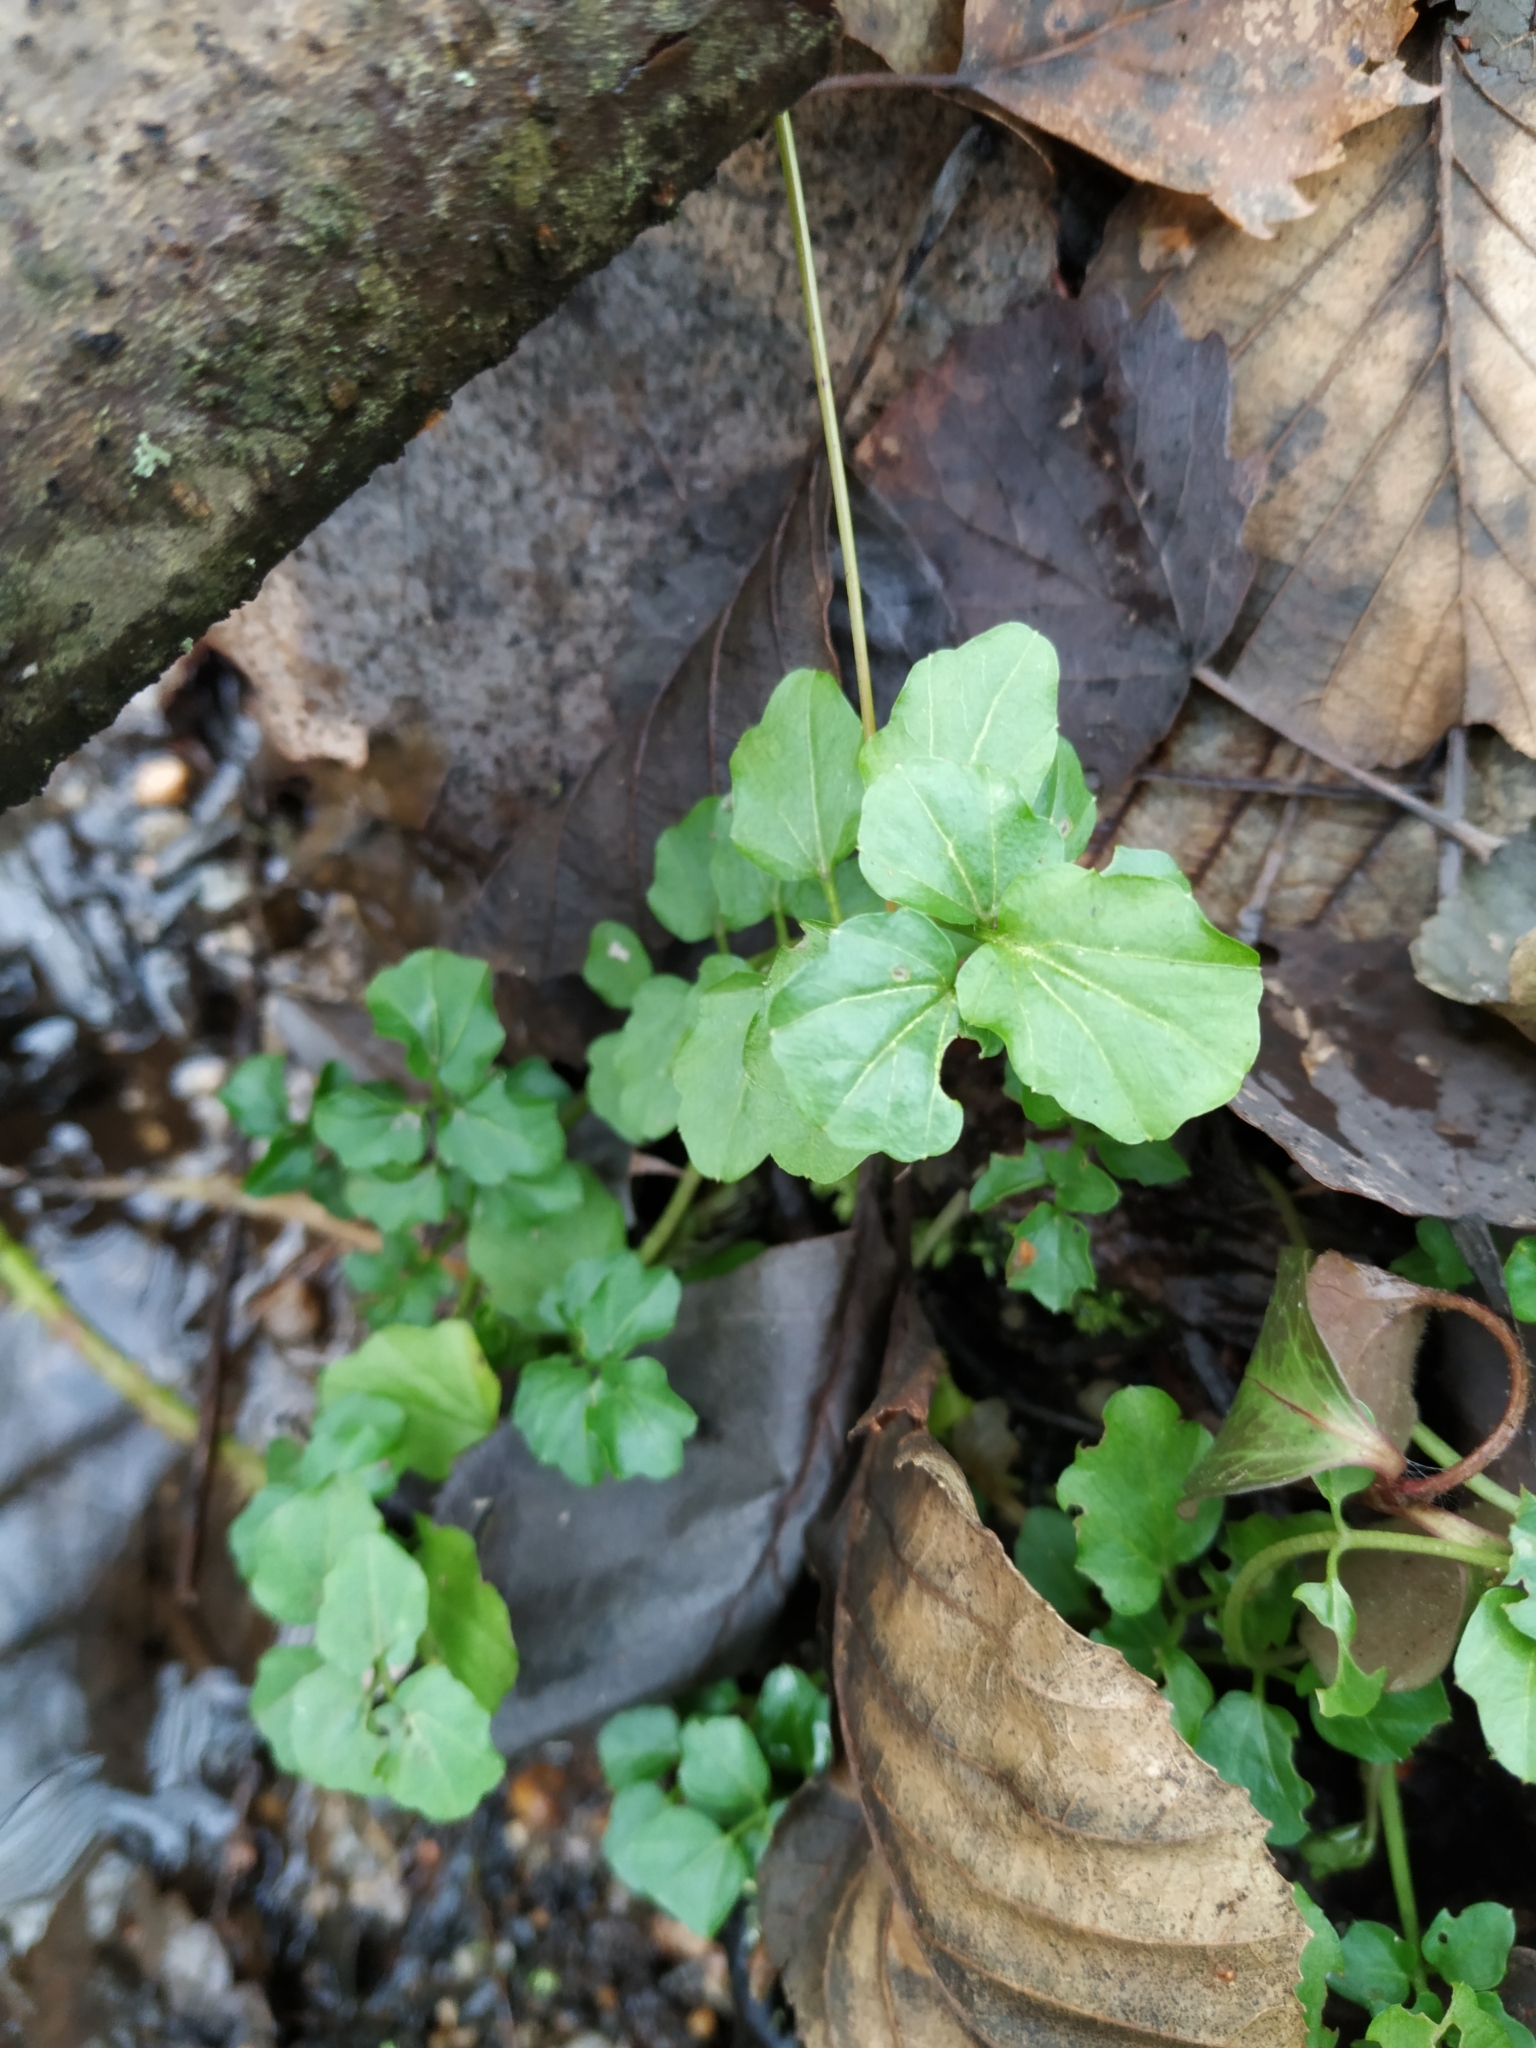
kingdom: Plantae
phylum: Tracheophyta
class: Magnoliopsida
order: Brassicales
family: Brassicaceae
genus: Cardamine
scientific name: Cardamine amara
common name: Large bitter-cress
